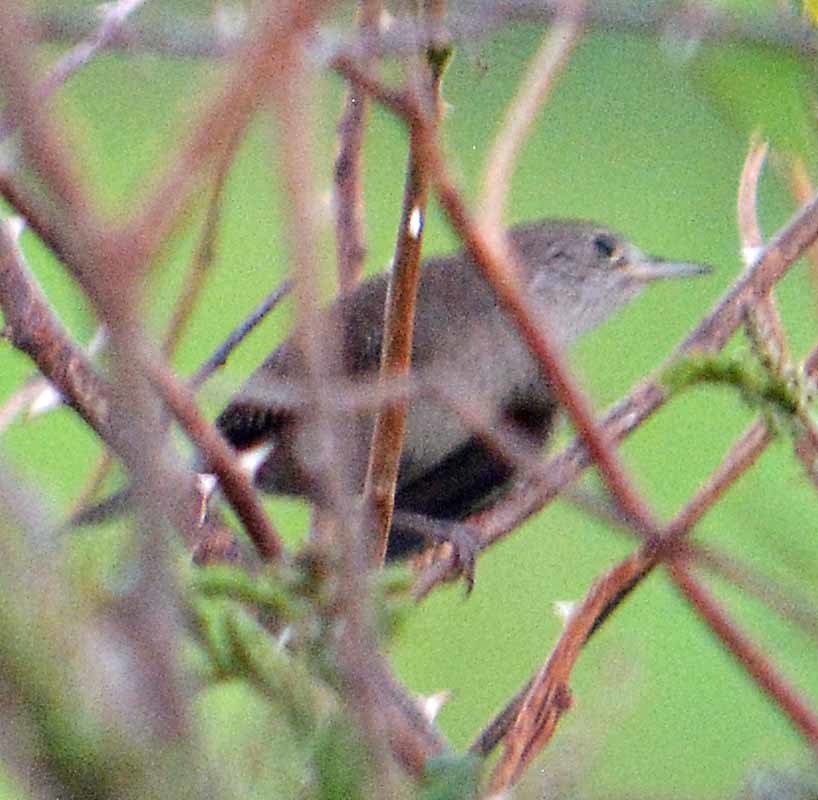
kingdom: Animalia
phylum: Chordata
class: Aves
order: Passeriformes
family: Troglodytidae
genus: Troglodytes
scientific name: Troglodytes aedon
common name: House wren
